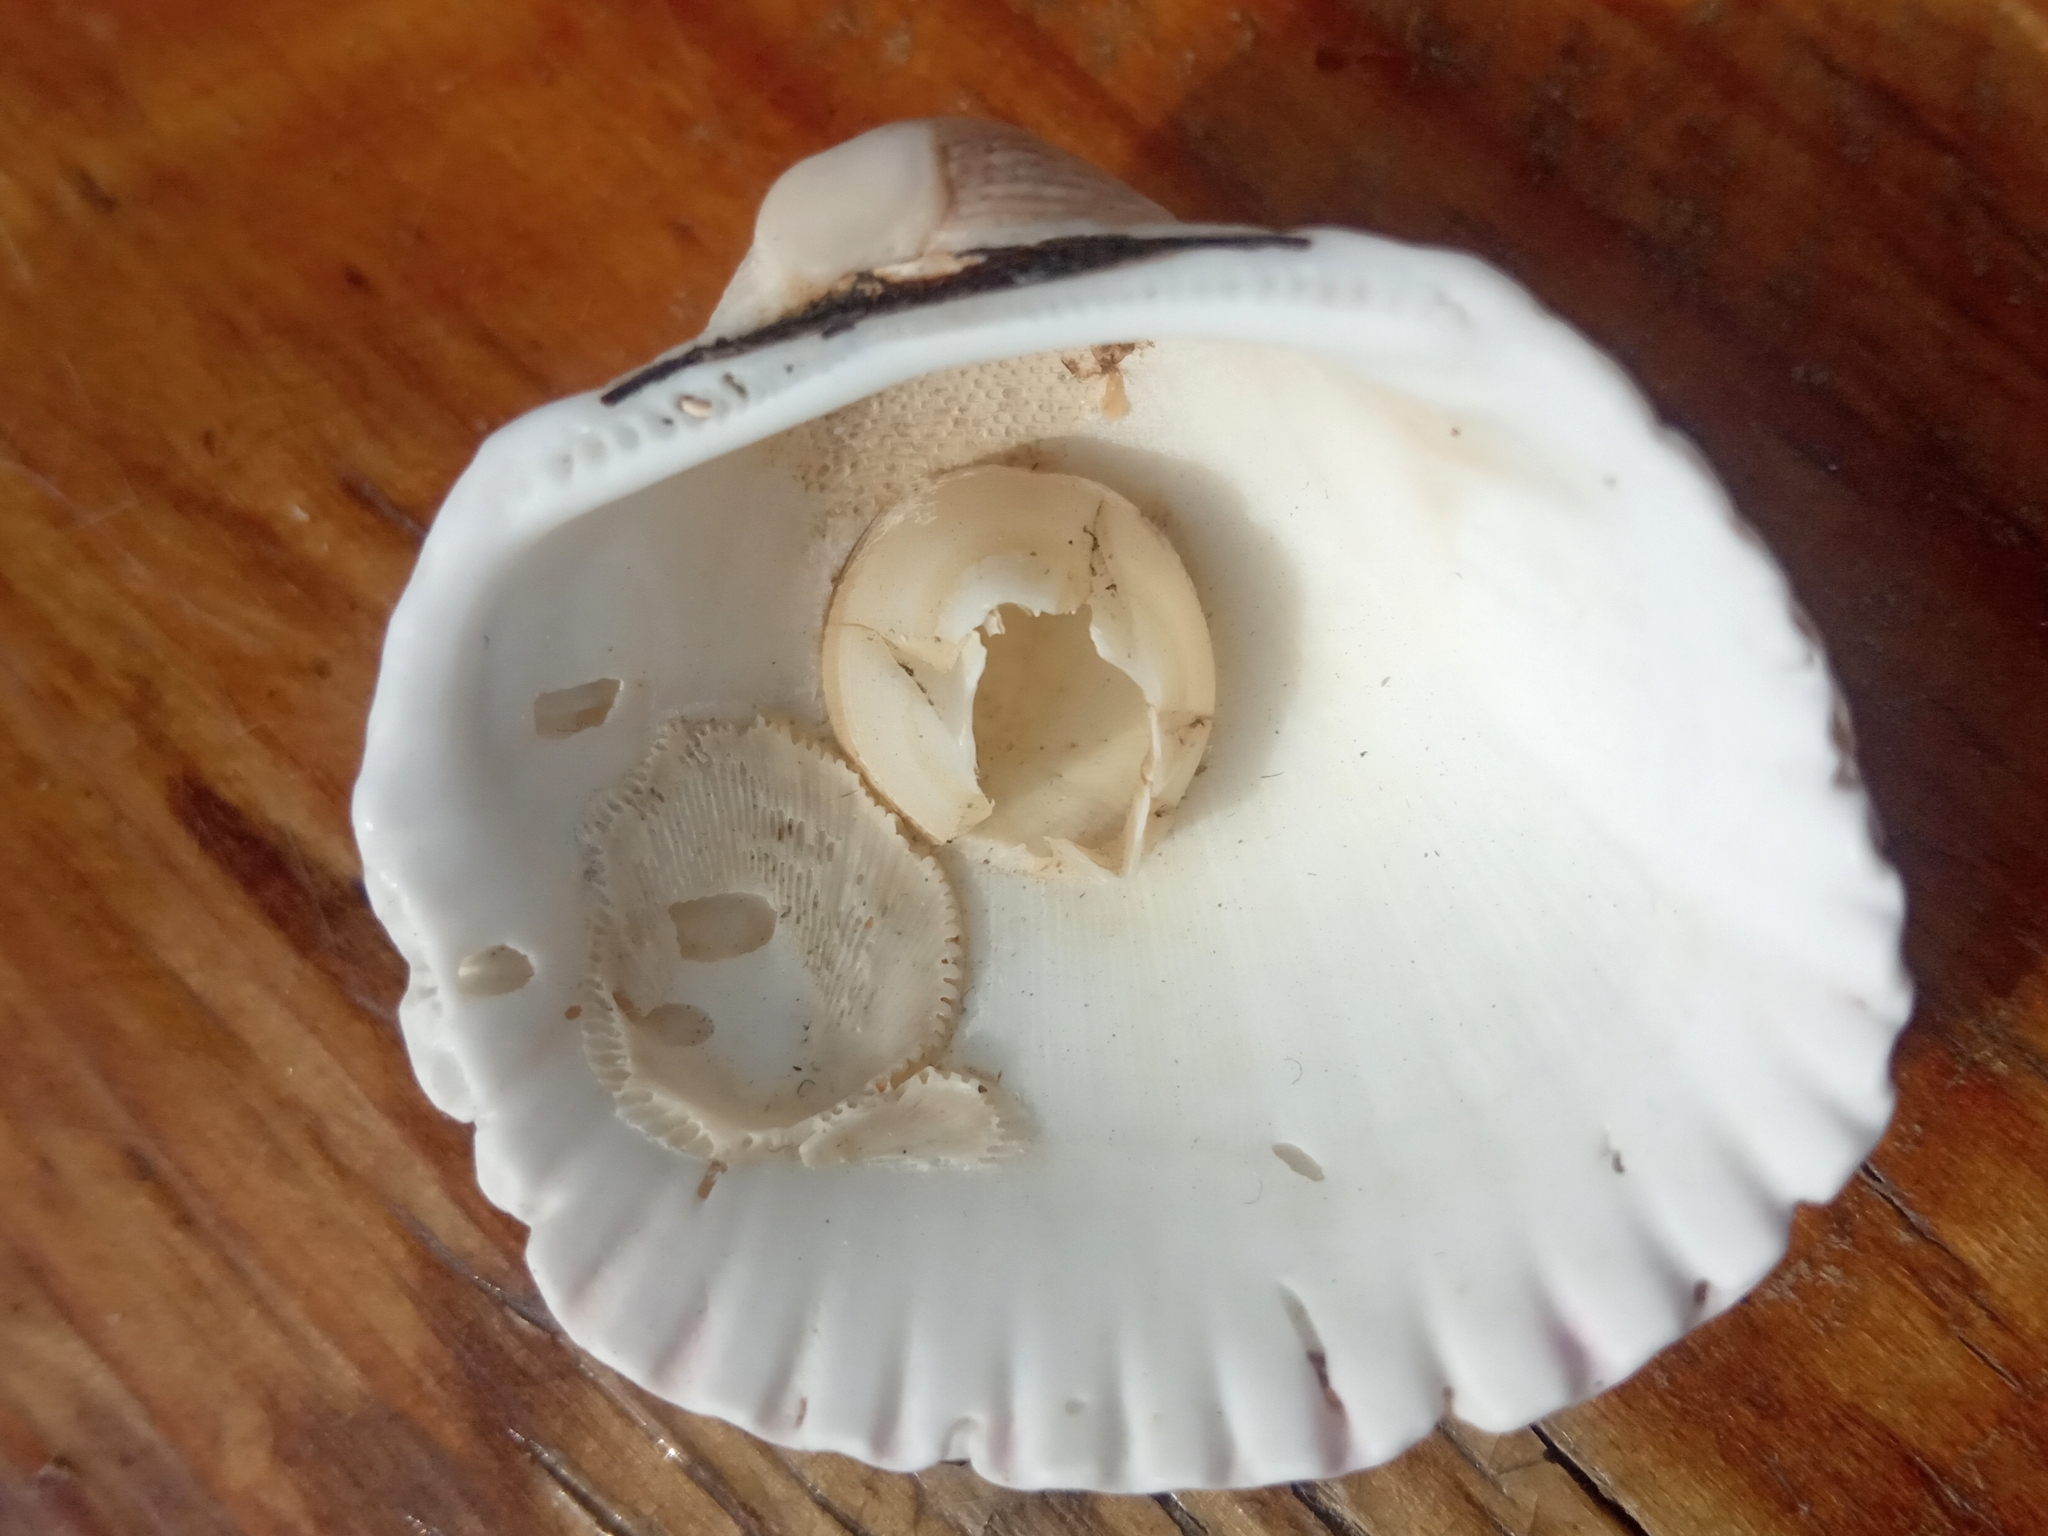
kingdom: Animalia
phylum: Arthropoda
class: Maxillopoda
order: Sessilia
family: Balanidae
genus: Amphibalanus
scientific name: Amphibalanus improvisus
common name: Bay barnacle
